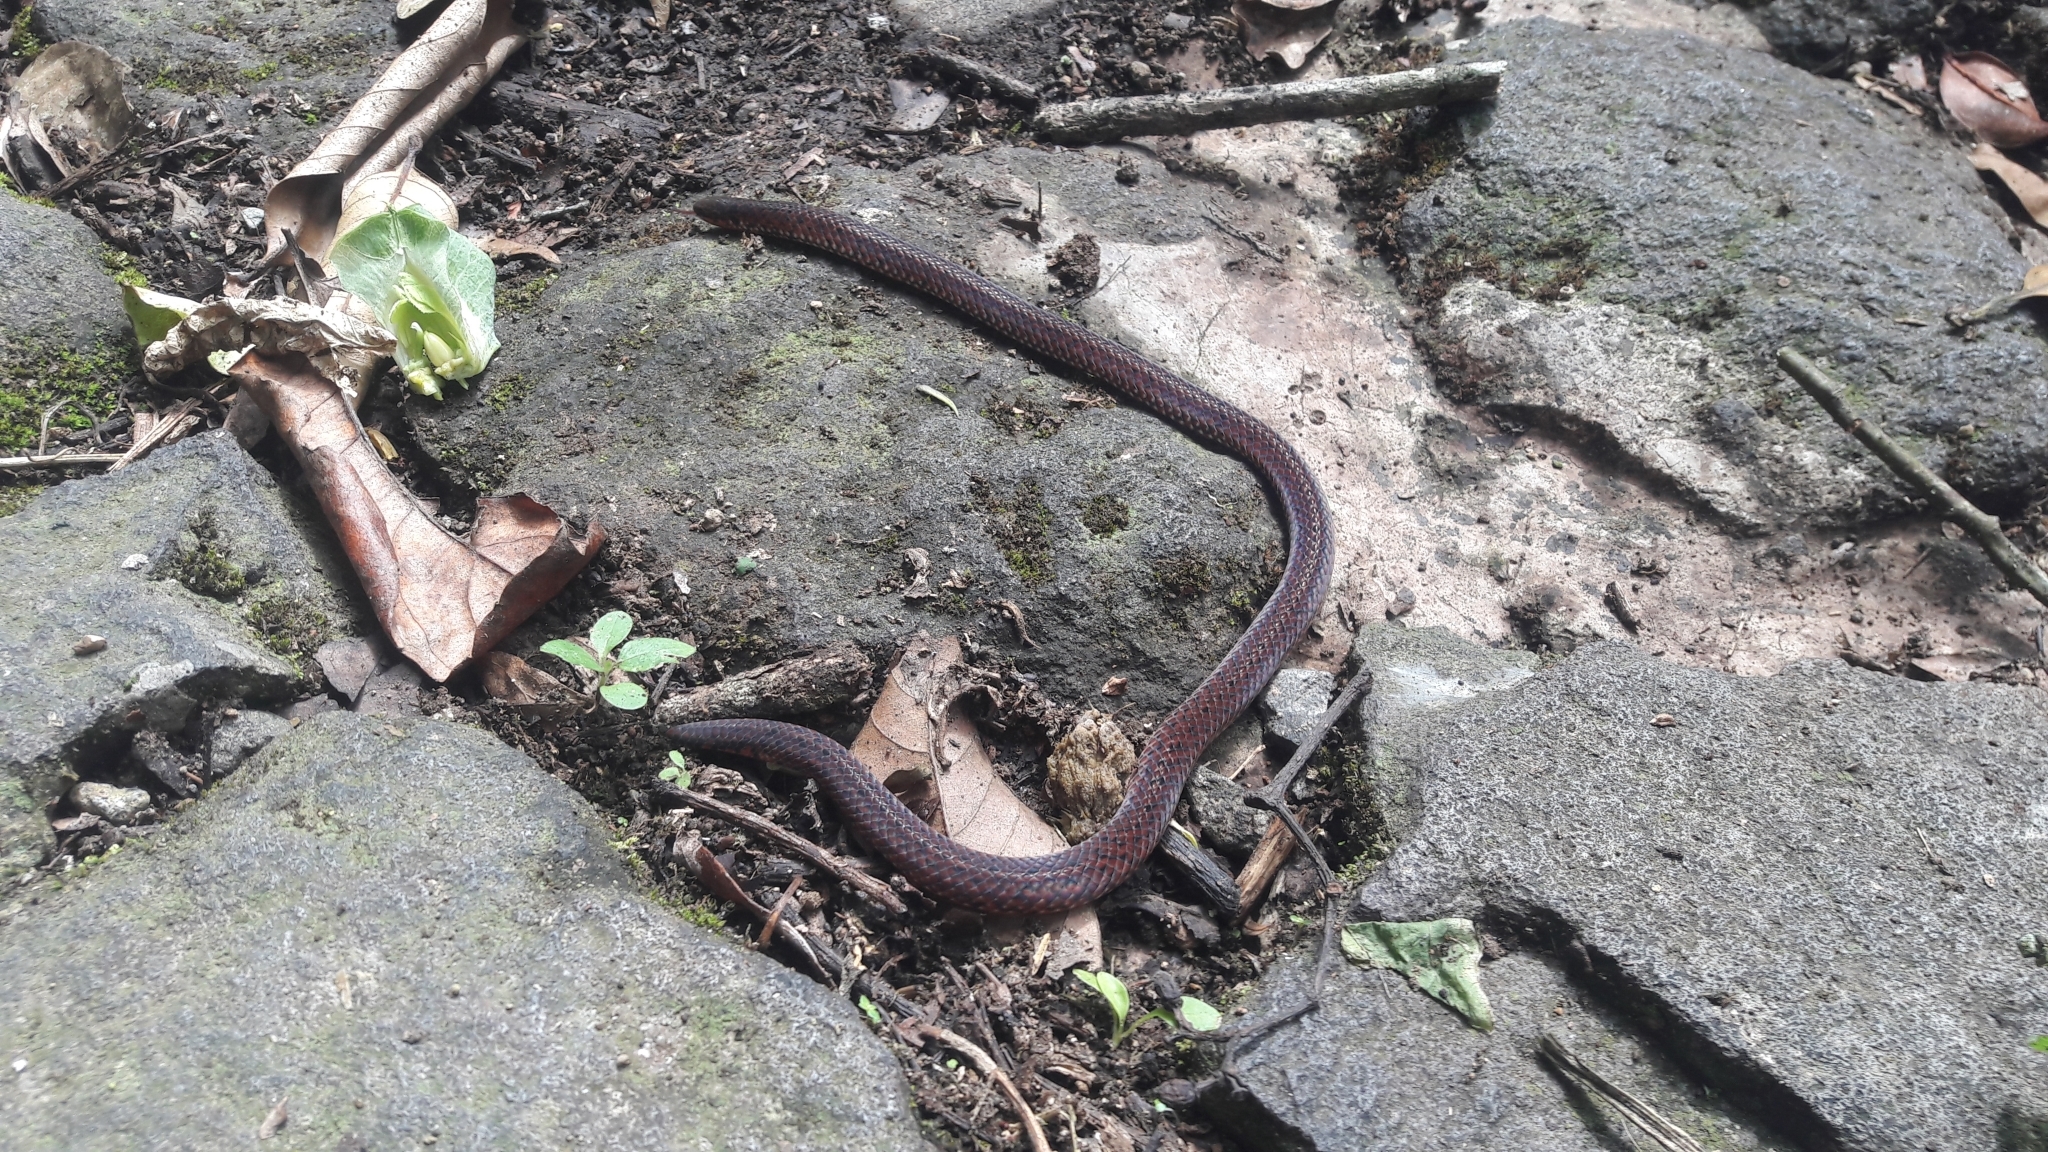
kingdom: Animalia
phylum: Chordata
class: Squamata
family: Colubridae
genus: Calamaria
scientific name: Calamaria linnaei
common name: Linnaeus's reed snake
